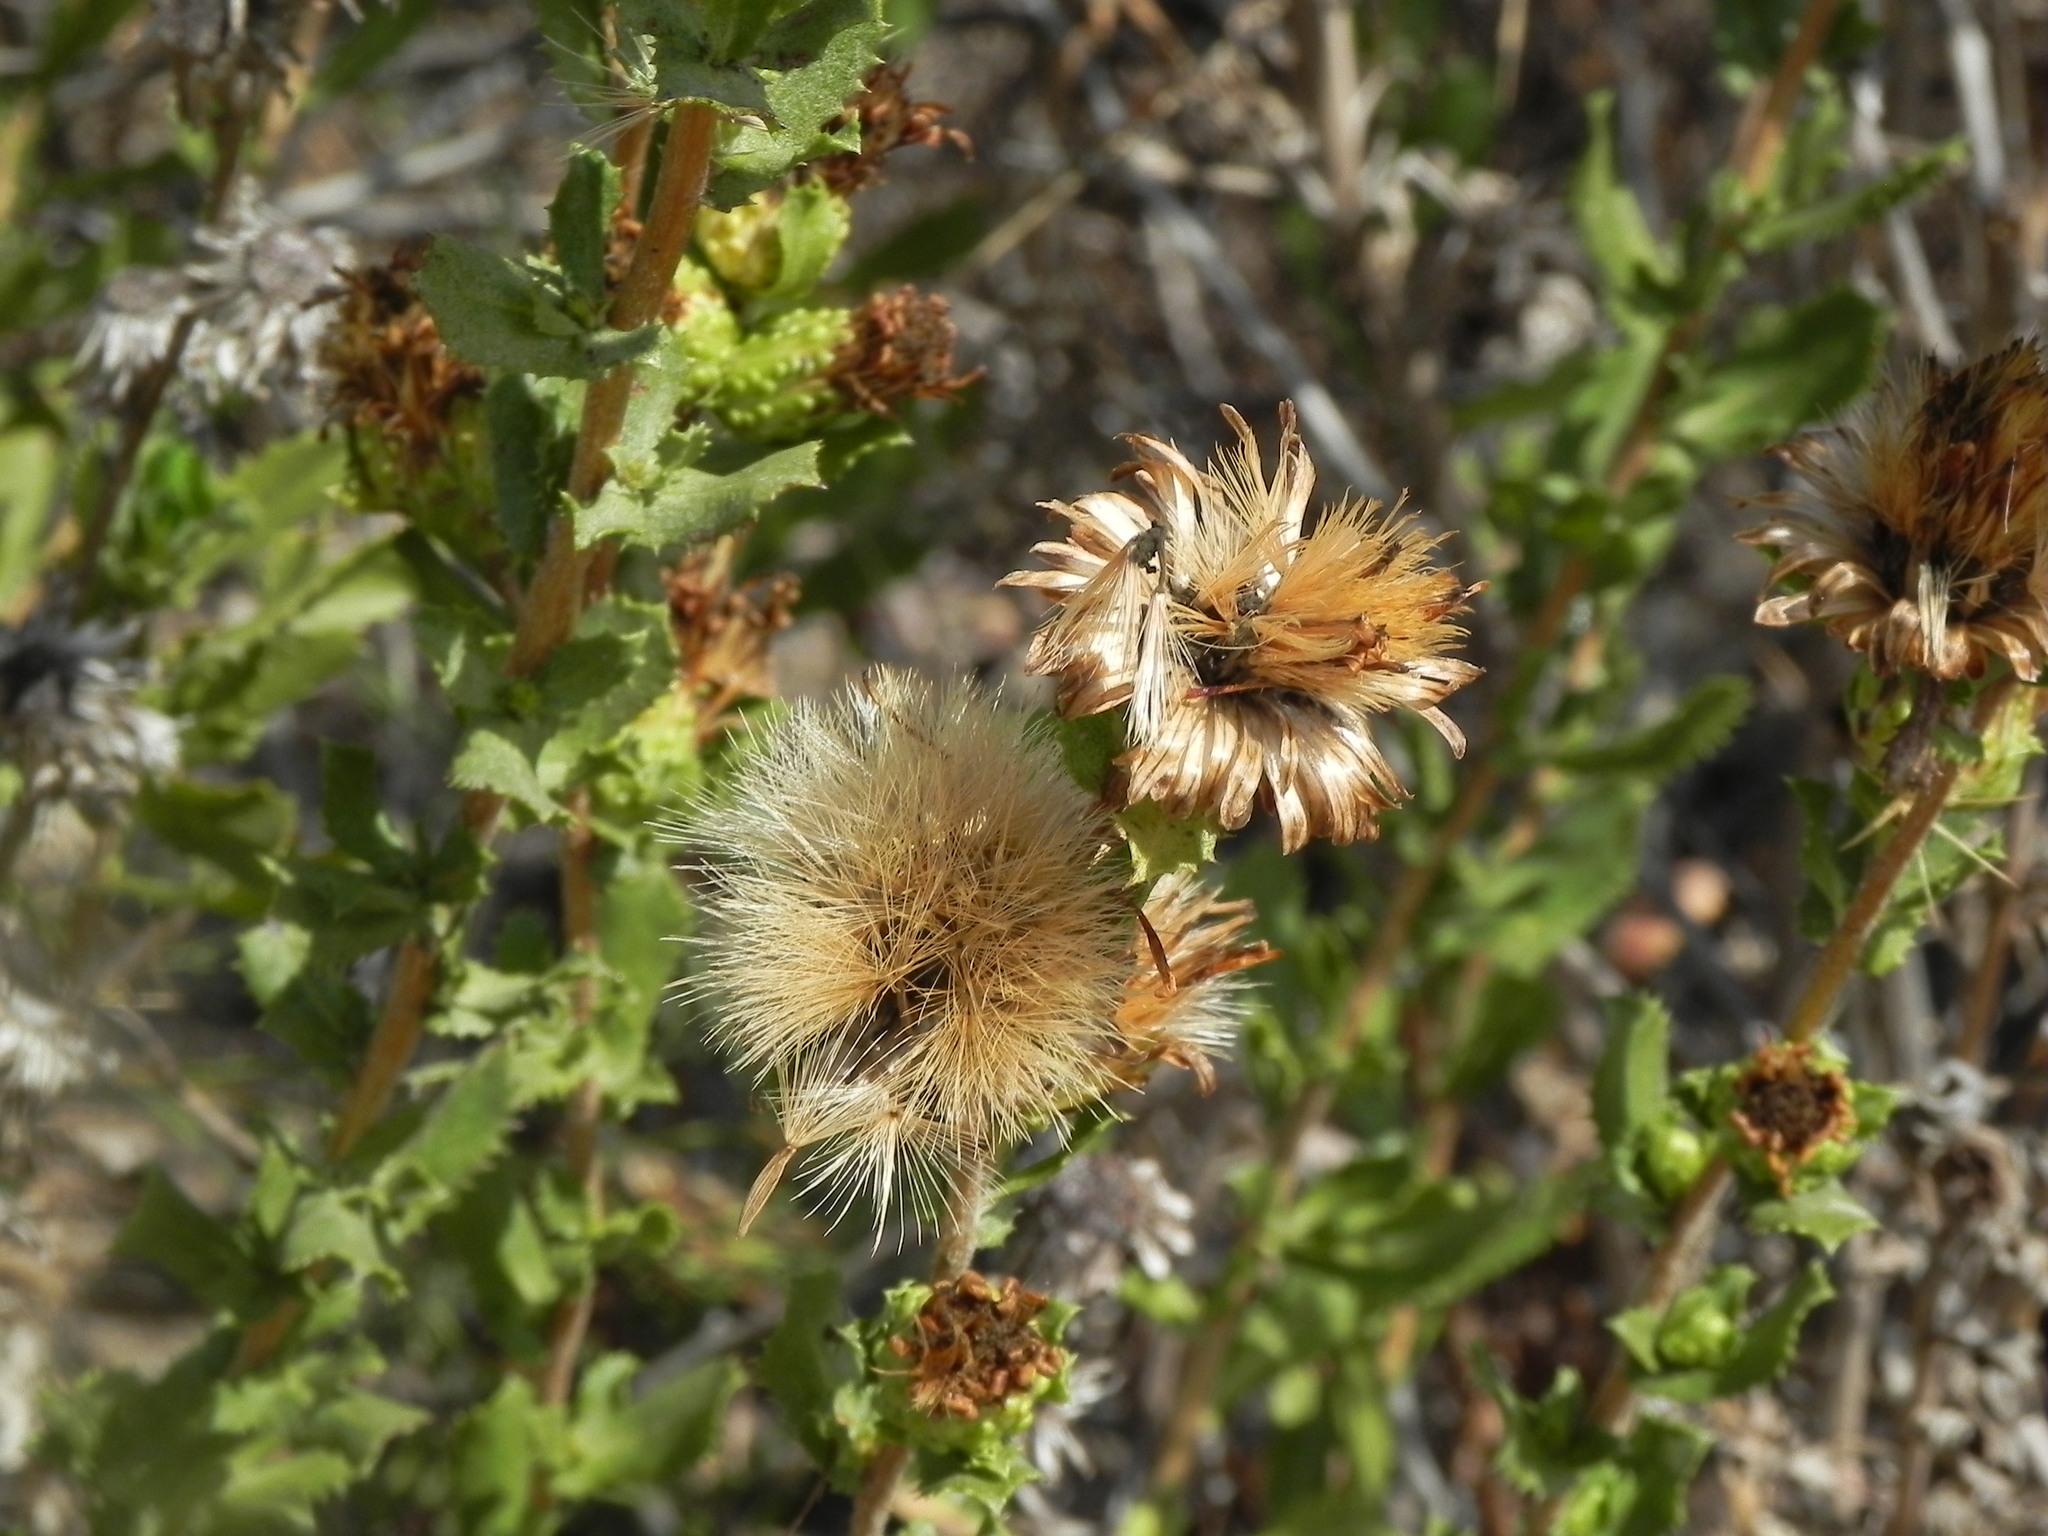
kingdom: Plantae
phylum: Tracheophyta
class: Magnoliopsida
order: Asterales
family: Asteraceae
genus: Hazardia
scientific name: Hazardia berberidis
